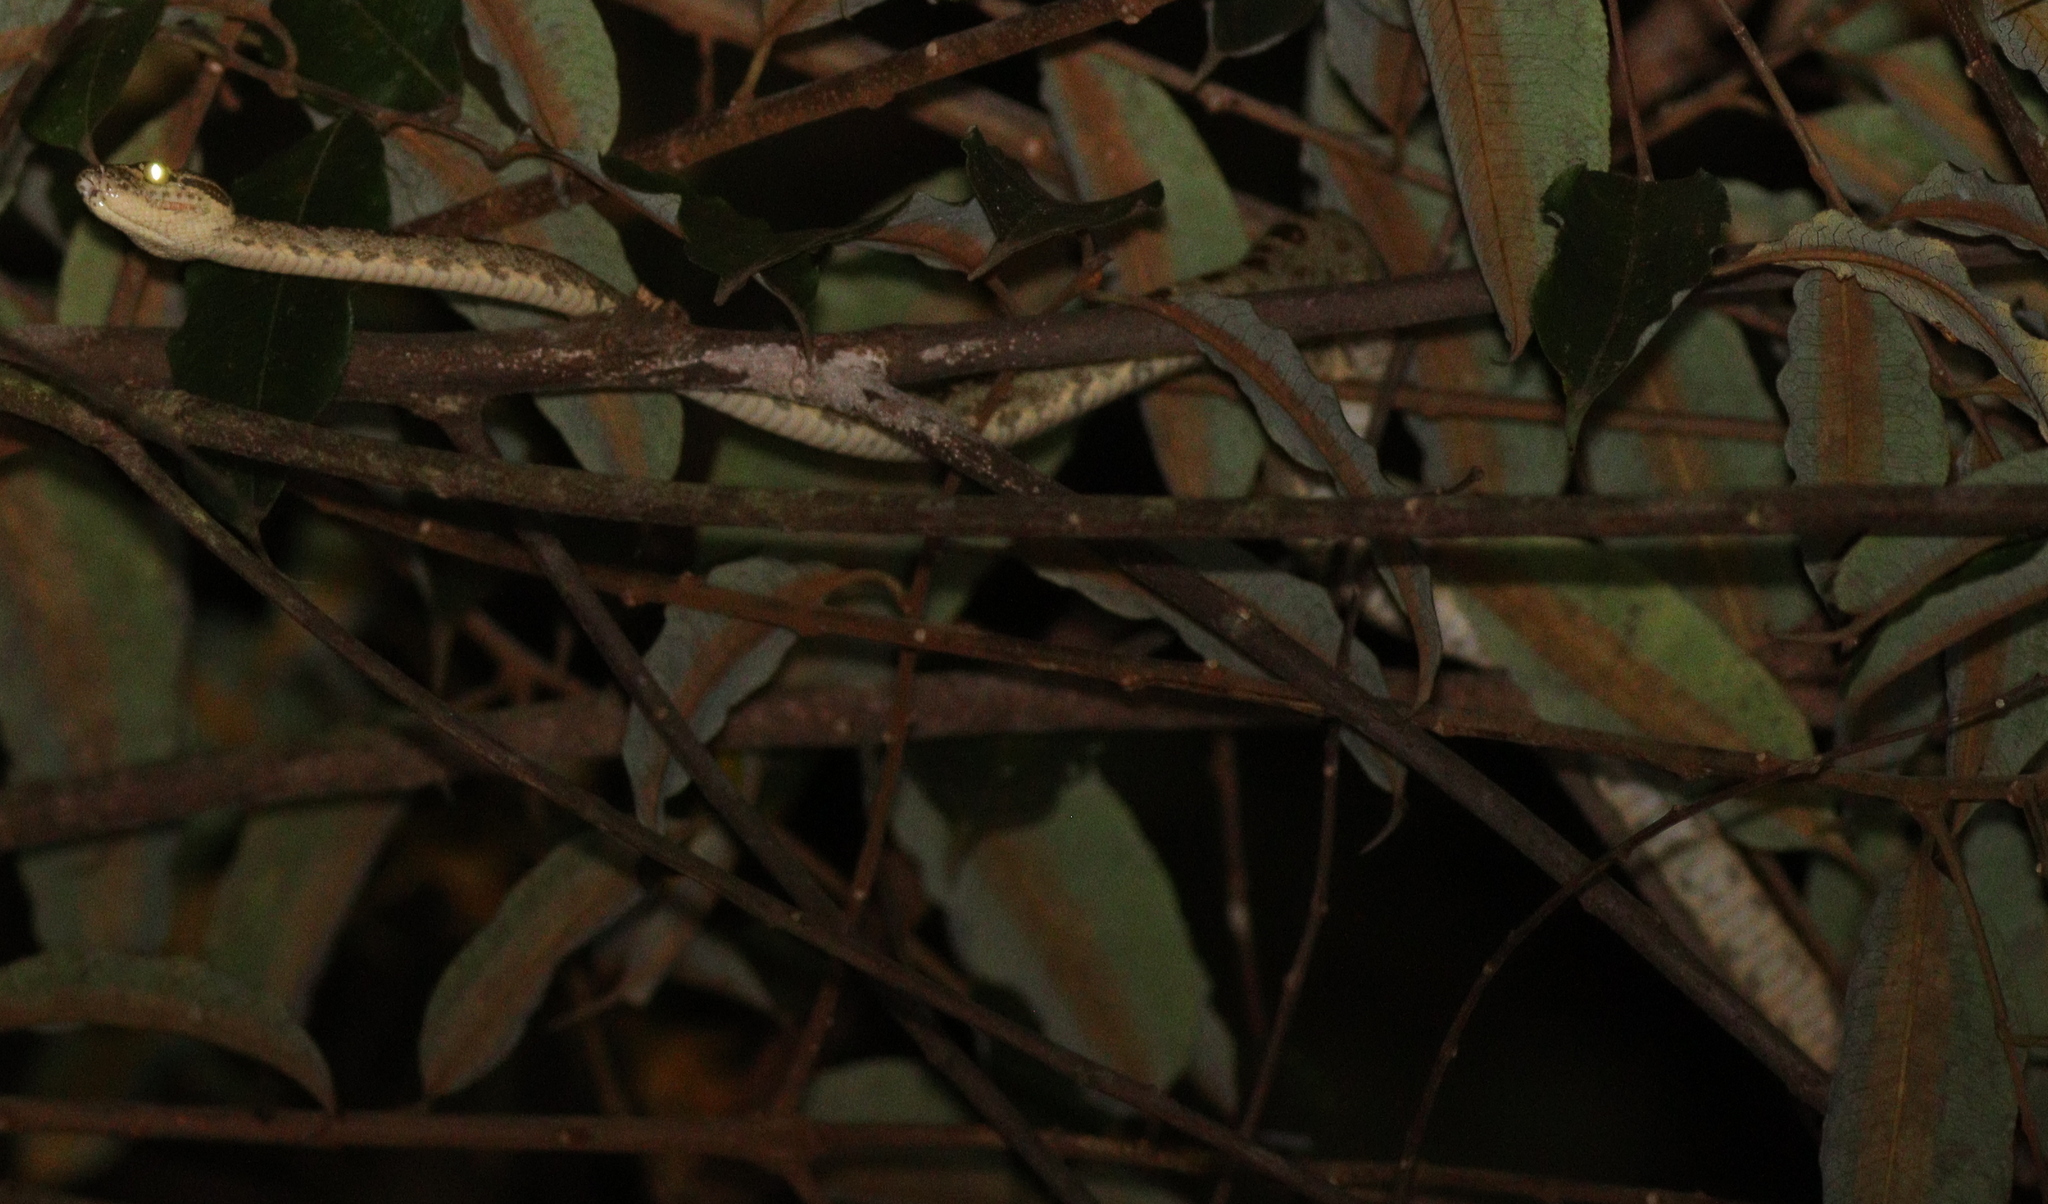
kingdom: Animalia
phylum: Chordata
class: Squamata
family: Boidae
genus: Corallus
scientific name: Corallus hortulana
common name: Garden tree boa
